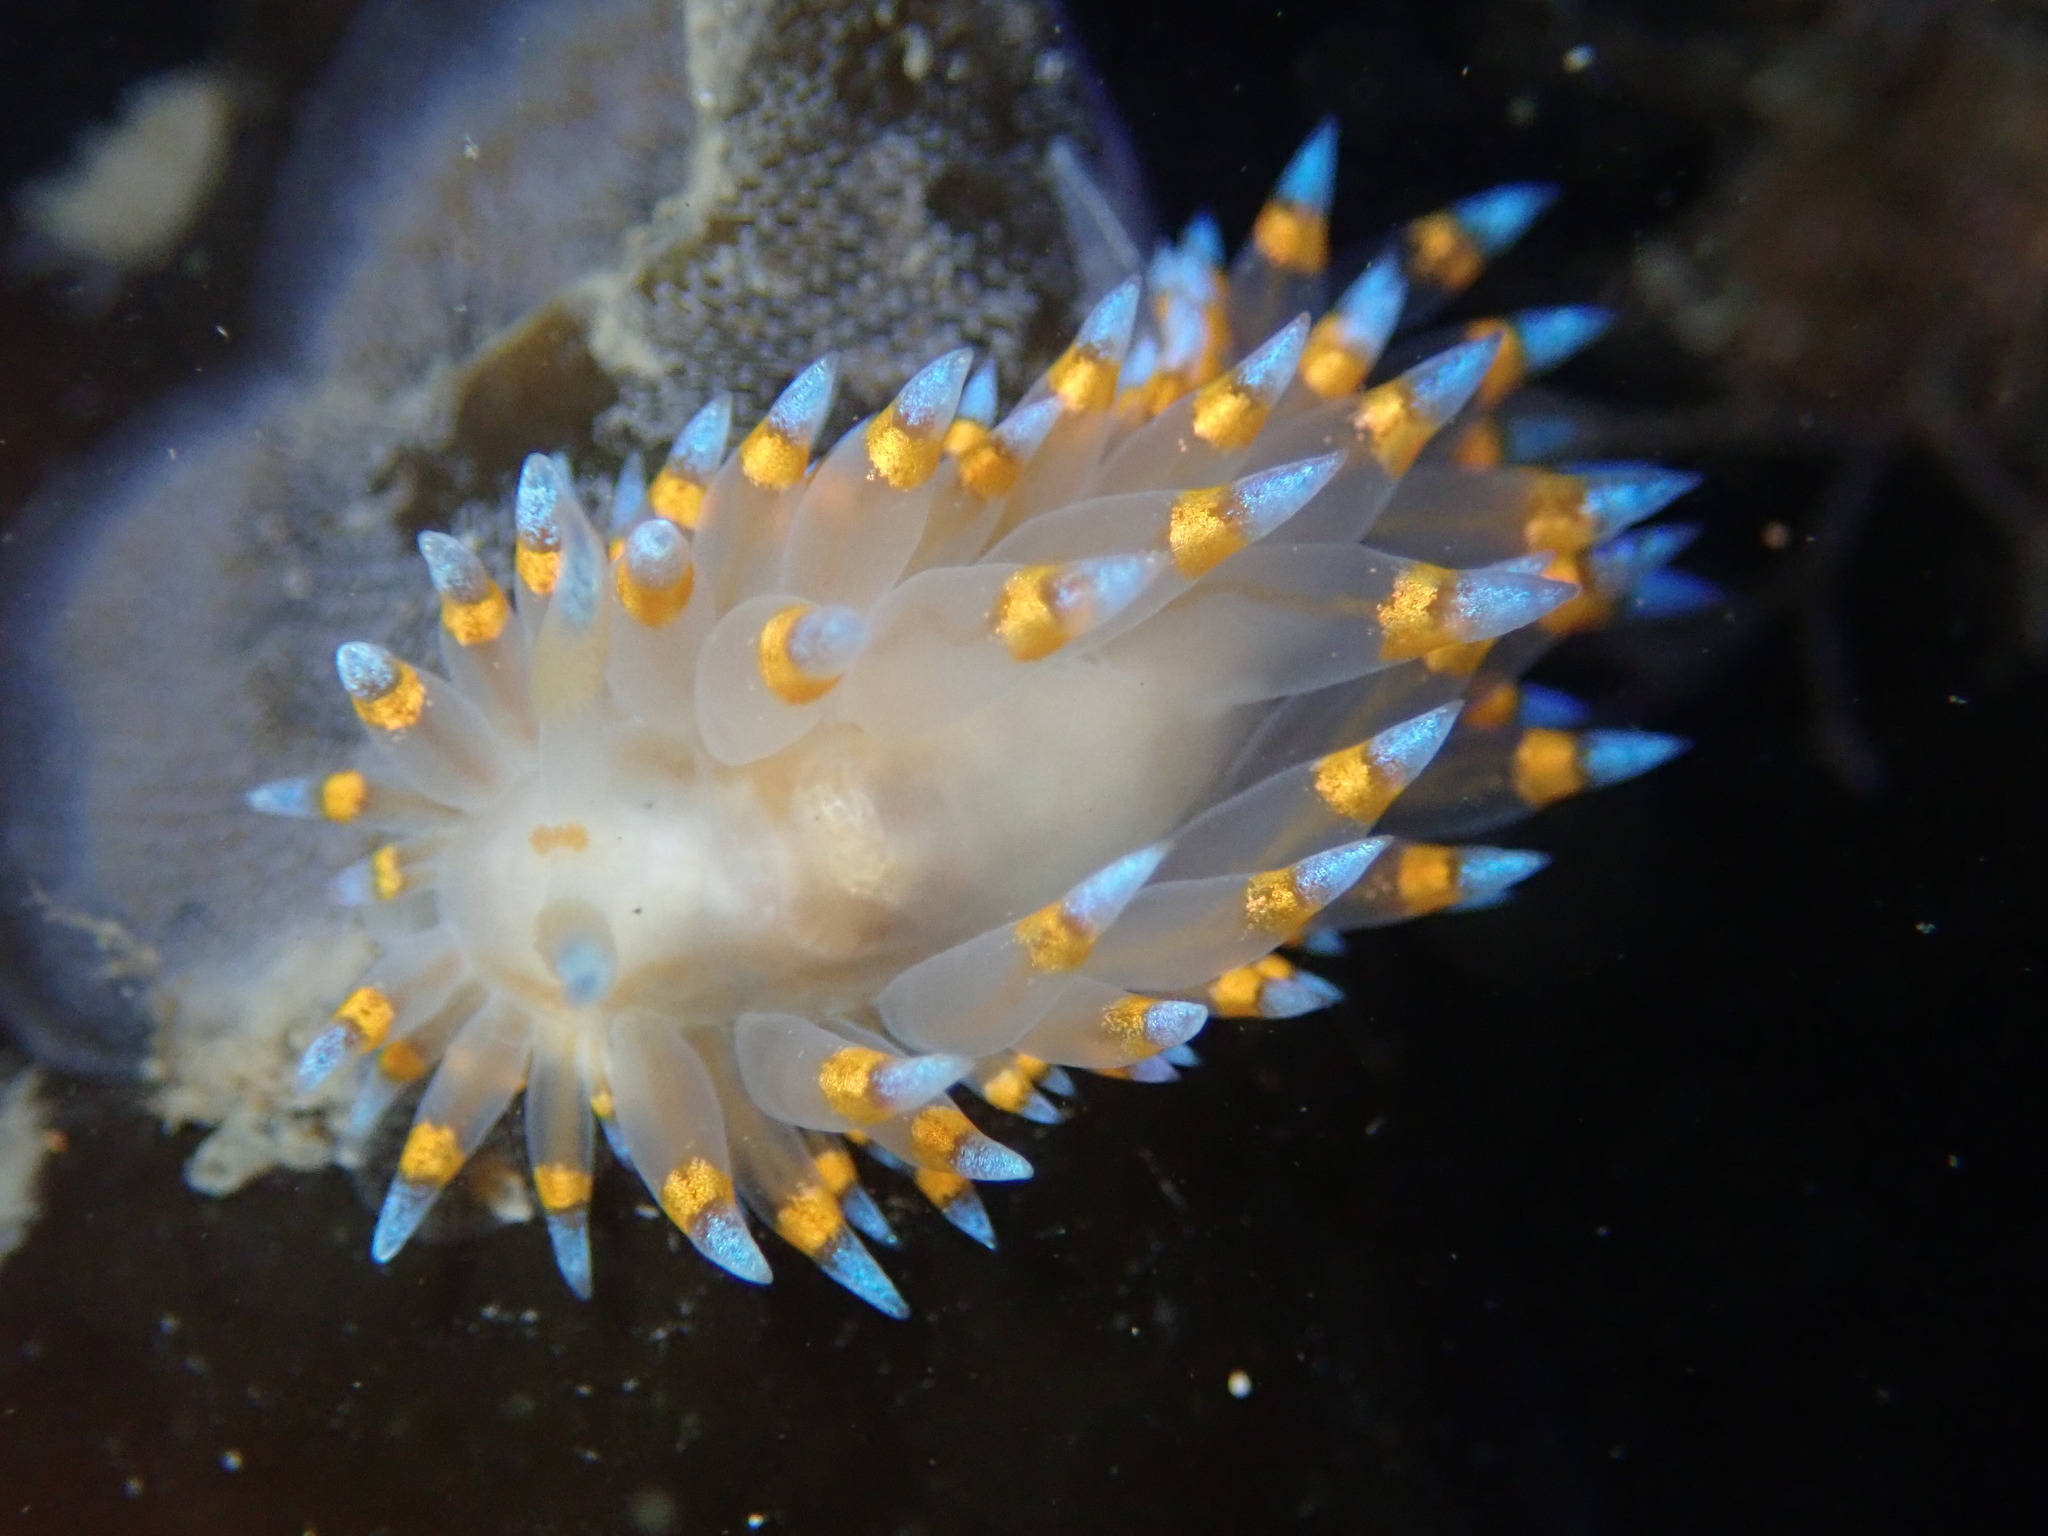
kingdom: Animalia
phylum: Mollusca
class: Gastropoda
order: Nudibranchia
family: Janolidae
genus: Antiopella
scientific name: Antiopella barbarensis
